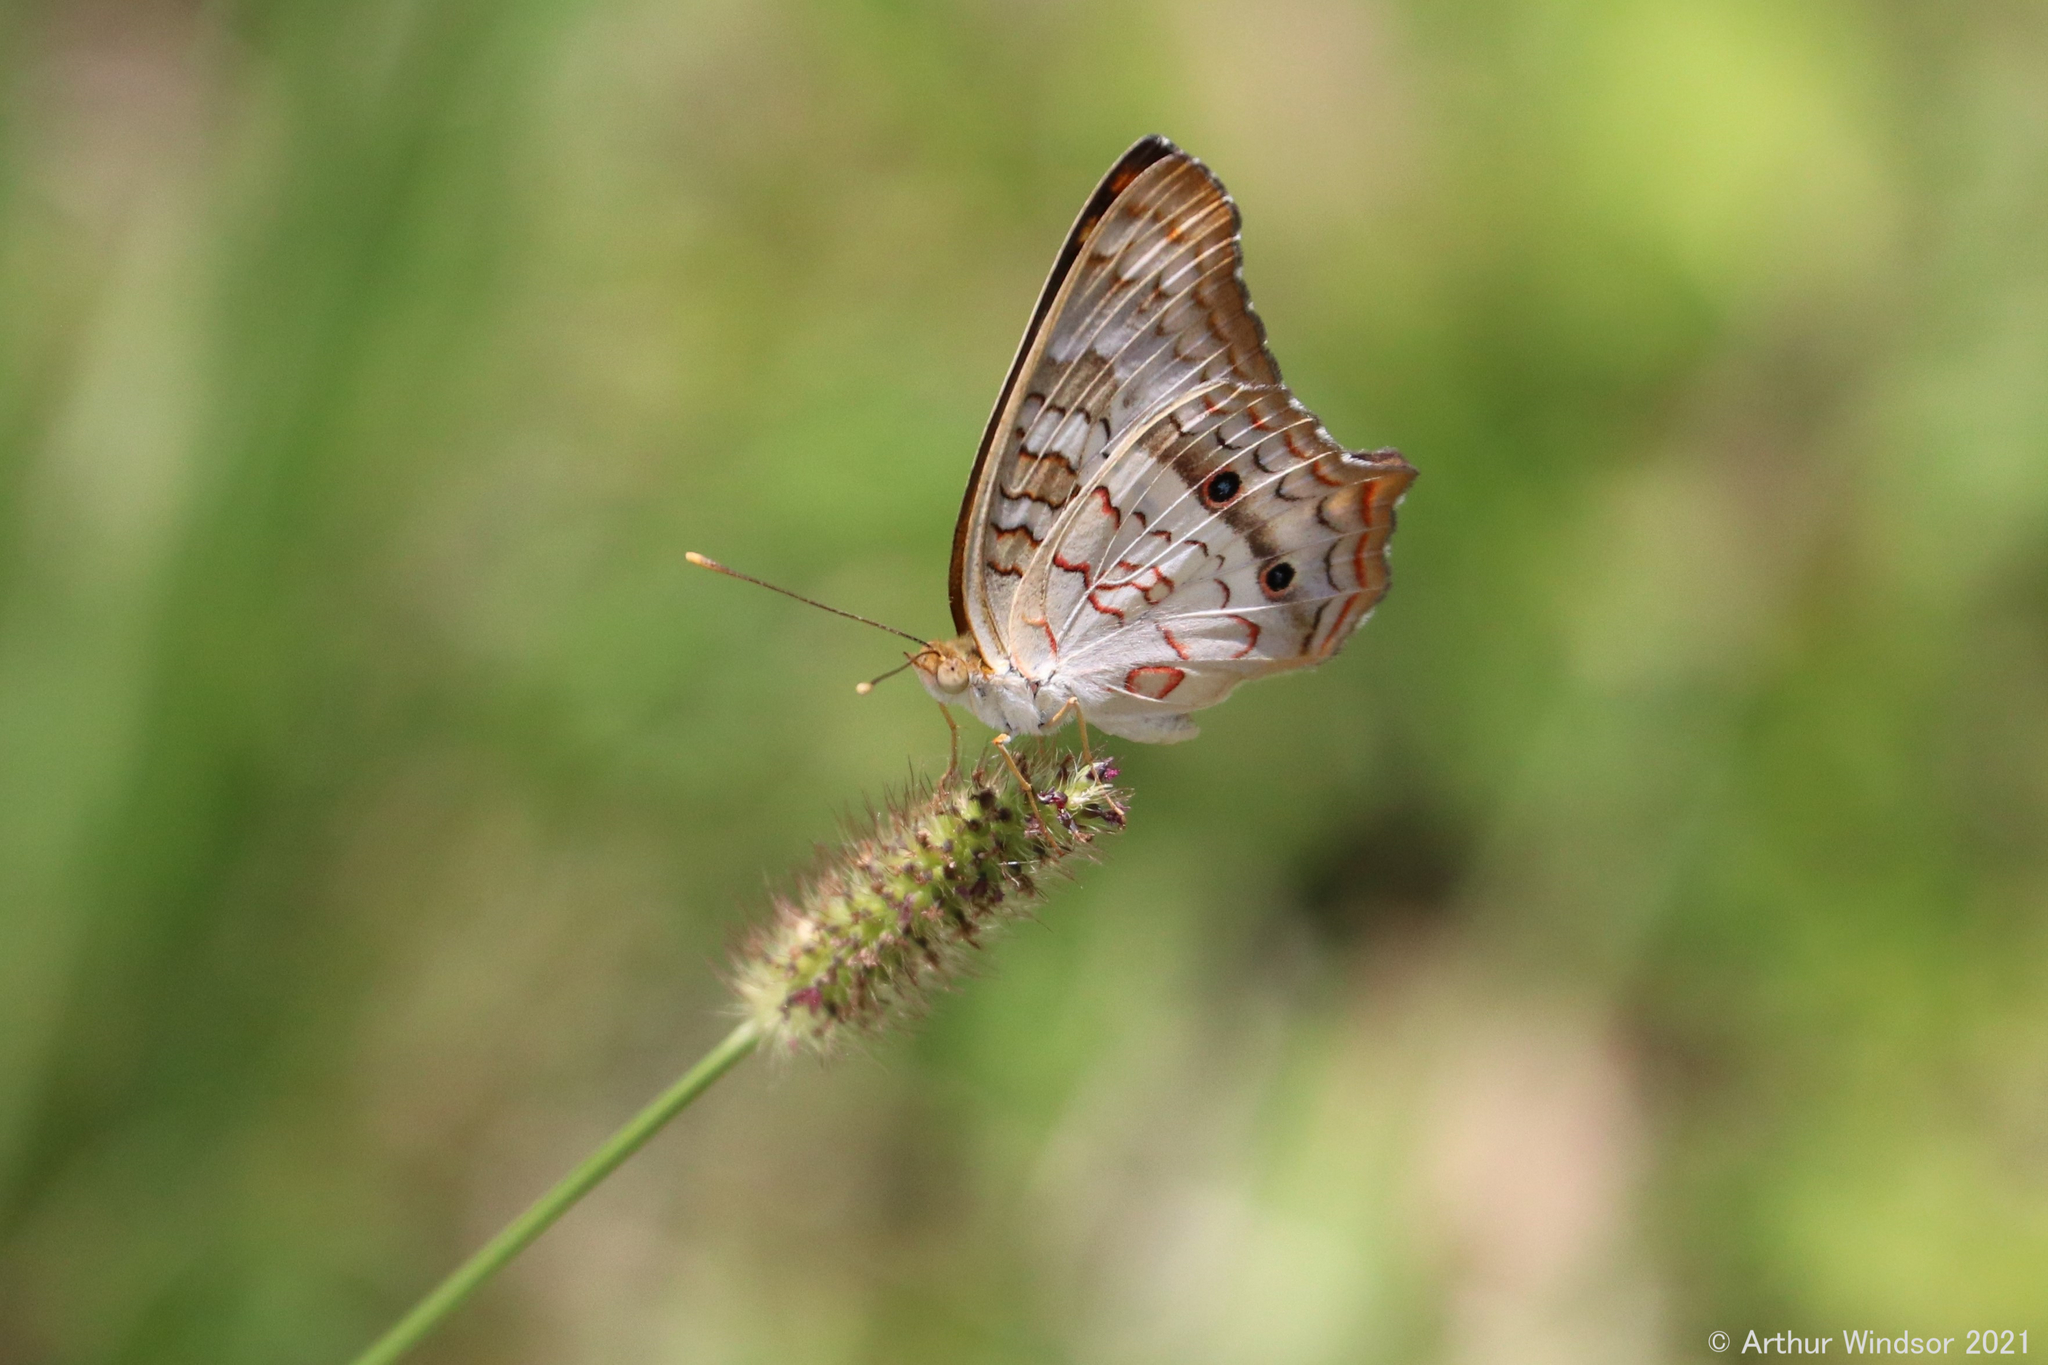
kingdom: Animalia
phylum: Arthropoda
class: Insecta
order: Lepidoptera
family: Nymphalidae
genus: Anartia
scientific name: Anartia jatrophae
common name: White peacock
